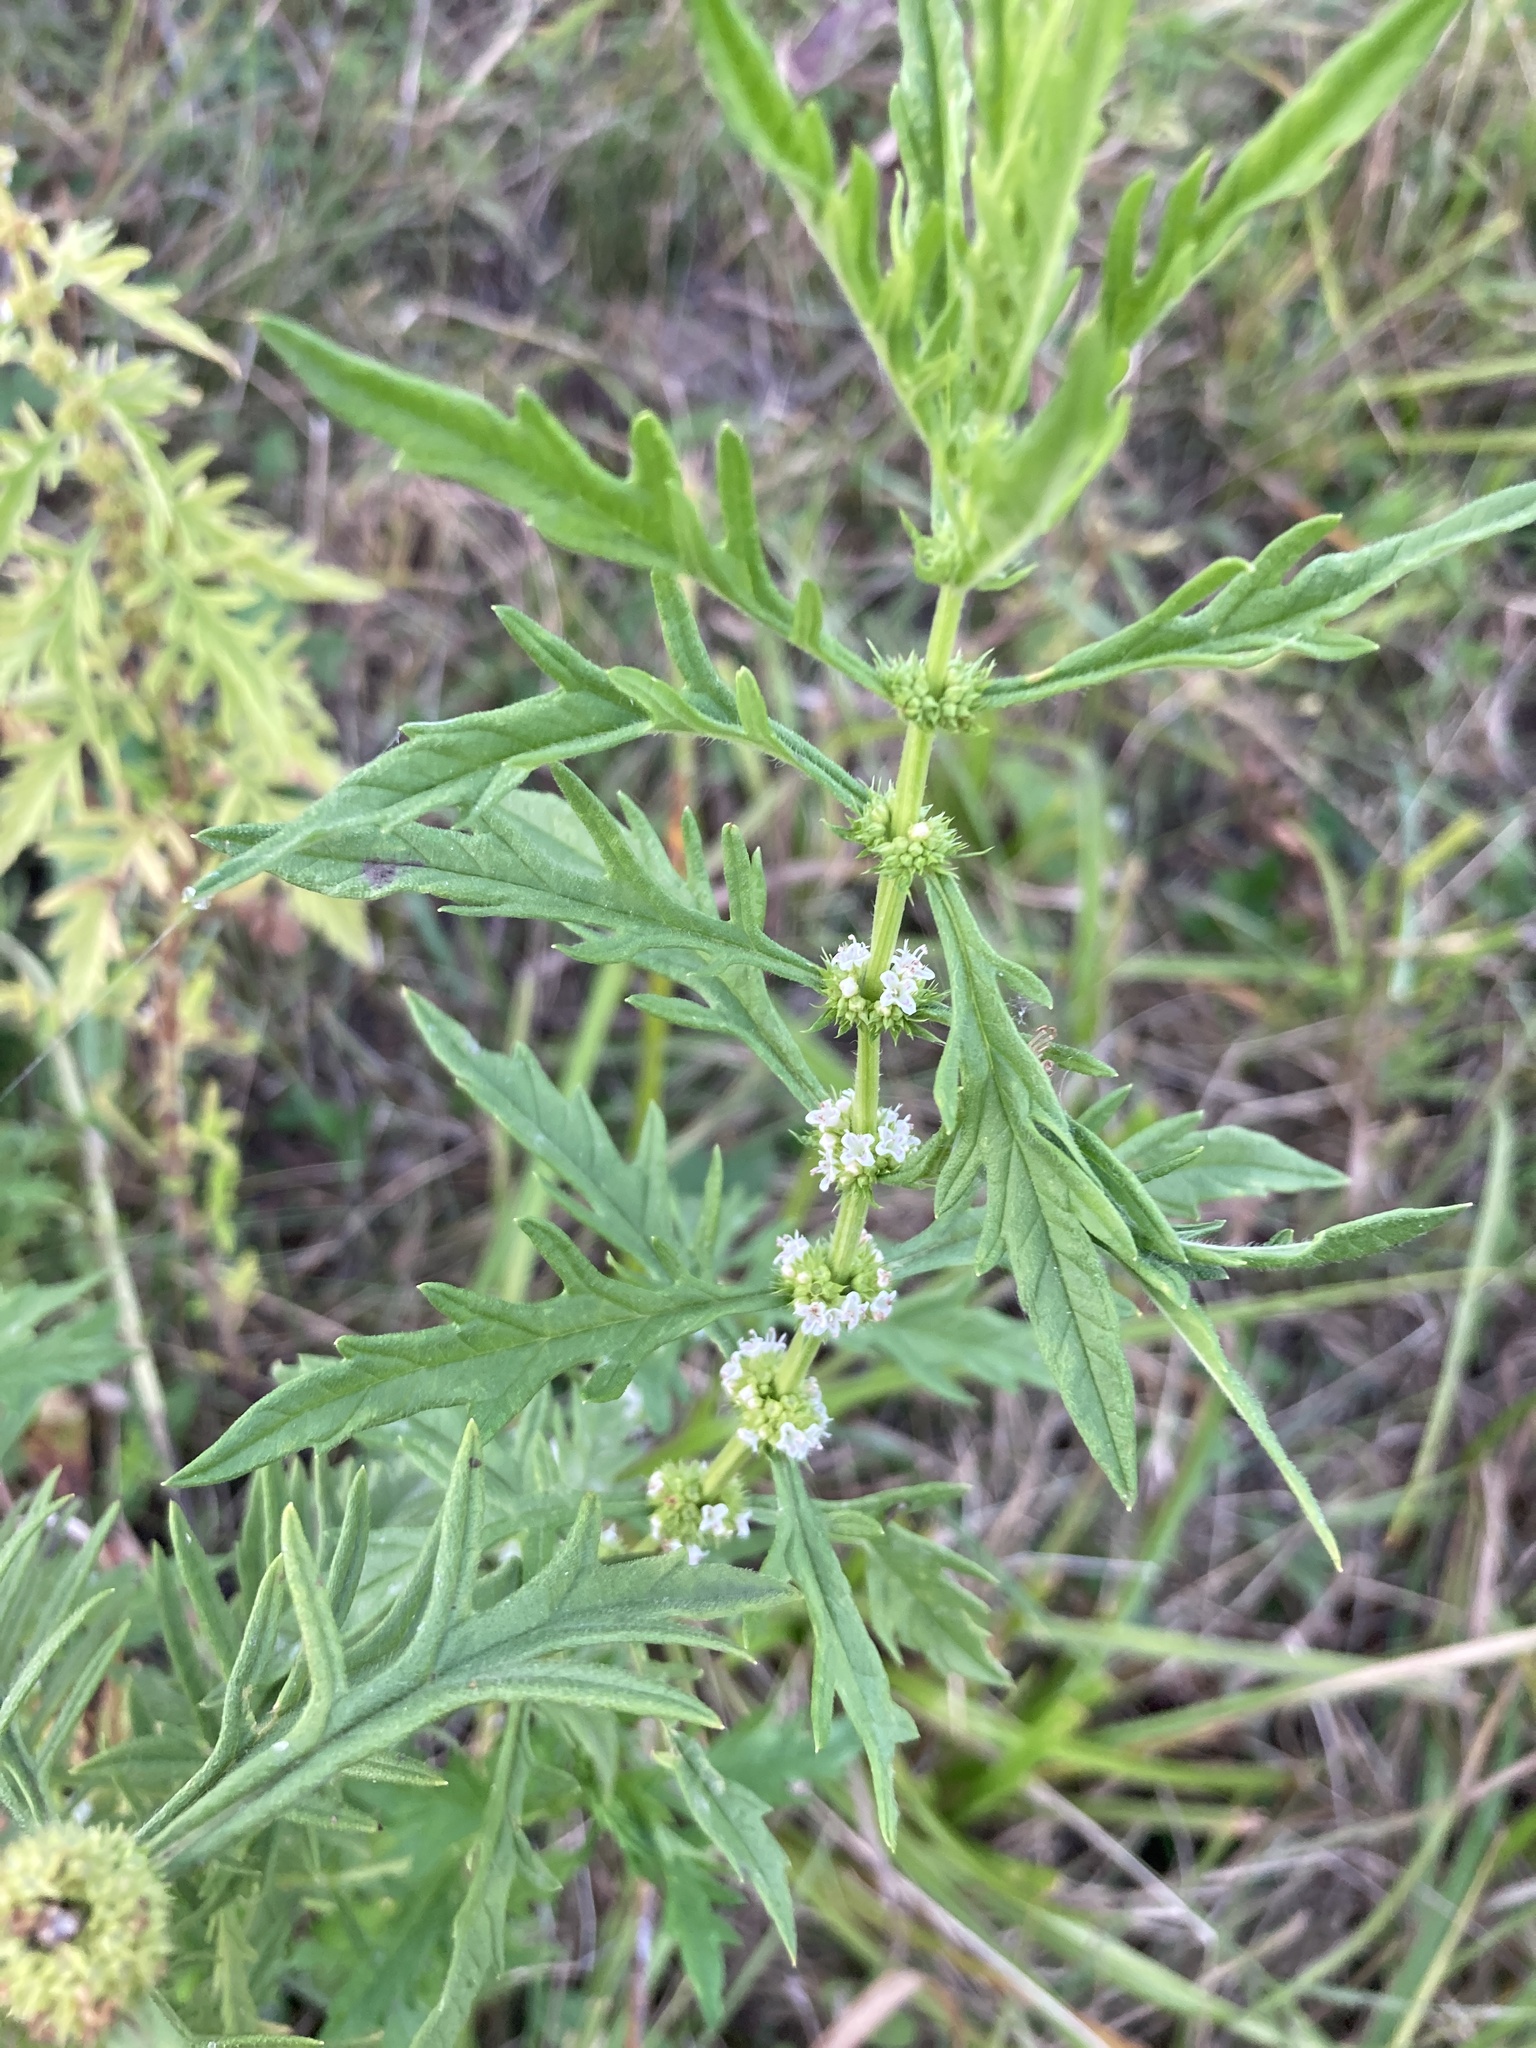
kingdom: Plantae
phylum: Tracheophyta
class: Magnoliopsida
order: Lamiales
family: Lamiaceae
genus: Lycopus
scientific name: Lycopus exaltatus
